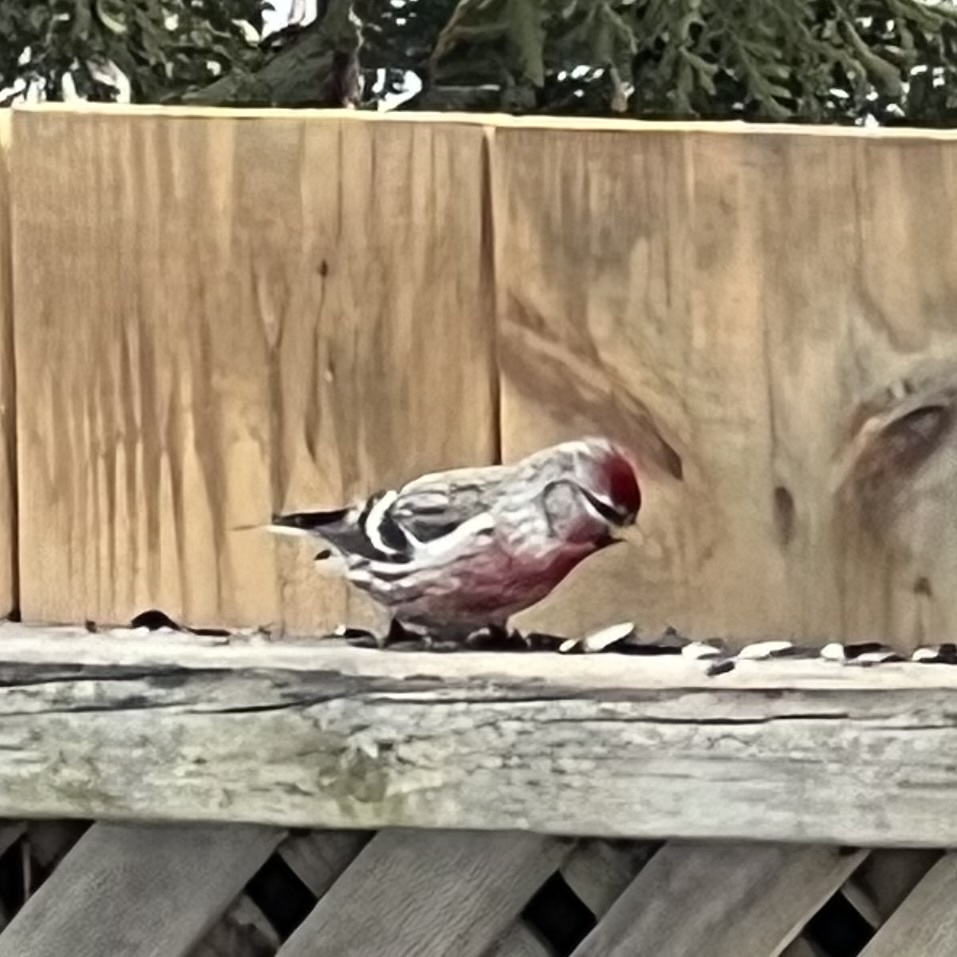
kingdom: Animalia
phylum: Chordata
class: Aves
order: Passeriformes
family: Fringillidae
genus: Acanthis
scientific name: Acanthis flammea
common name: Common redpoll
